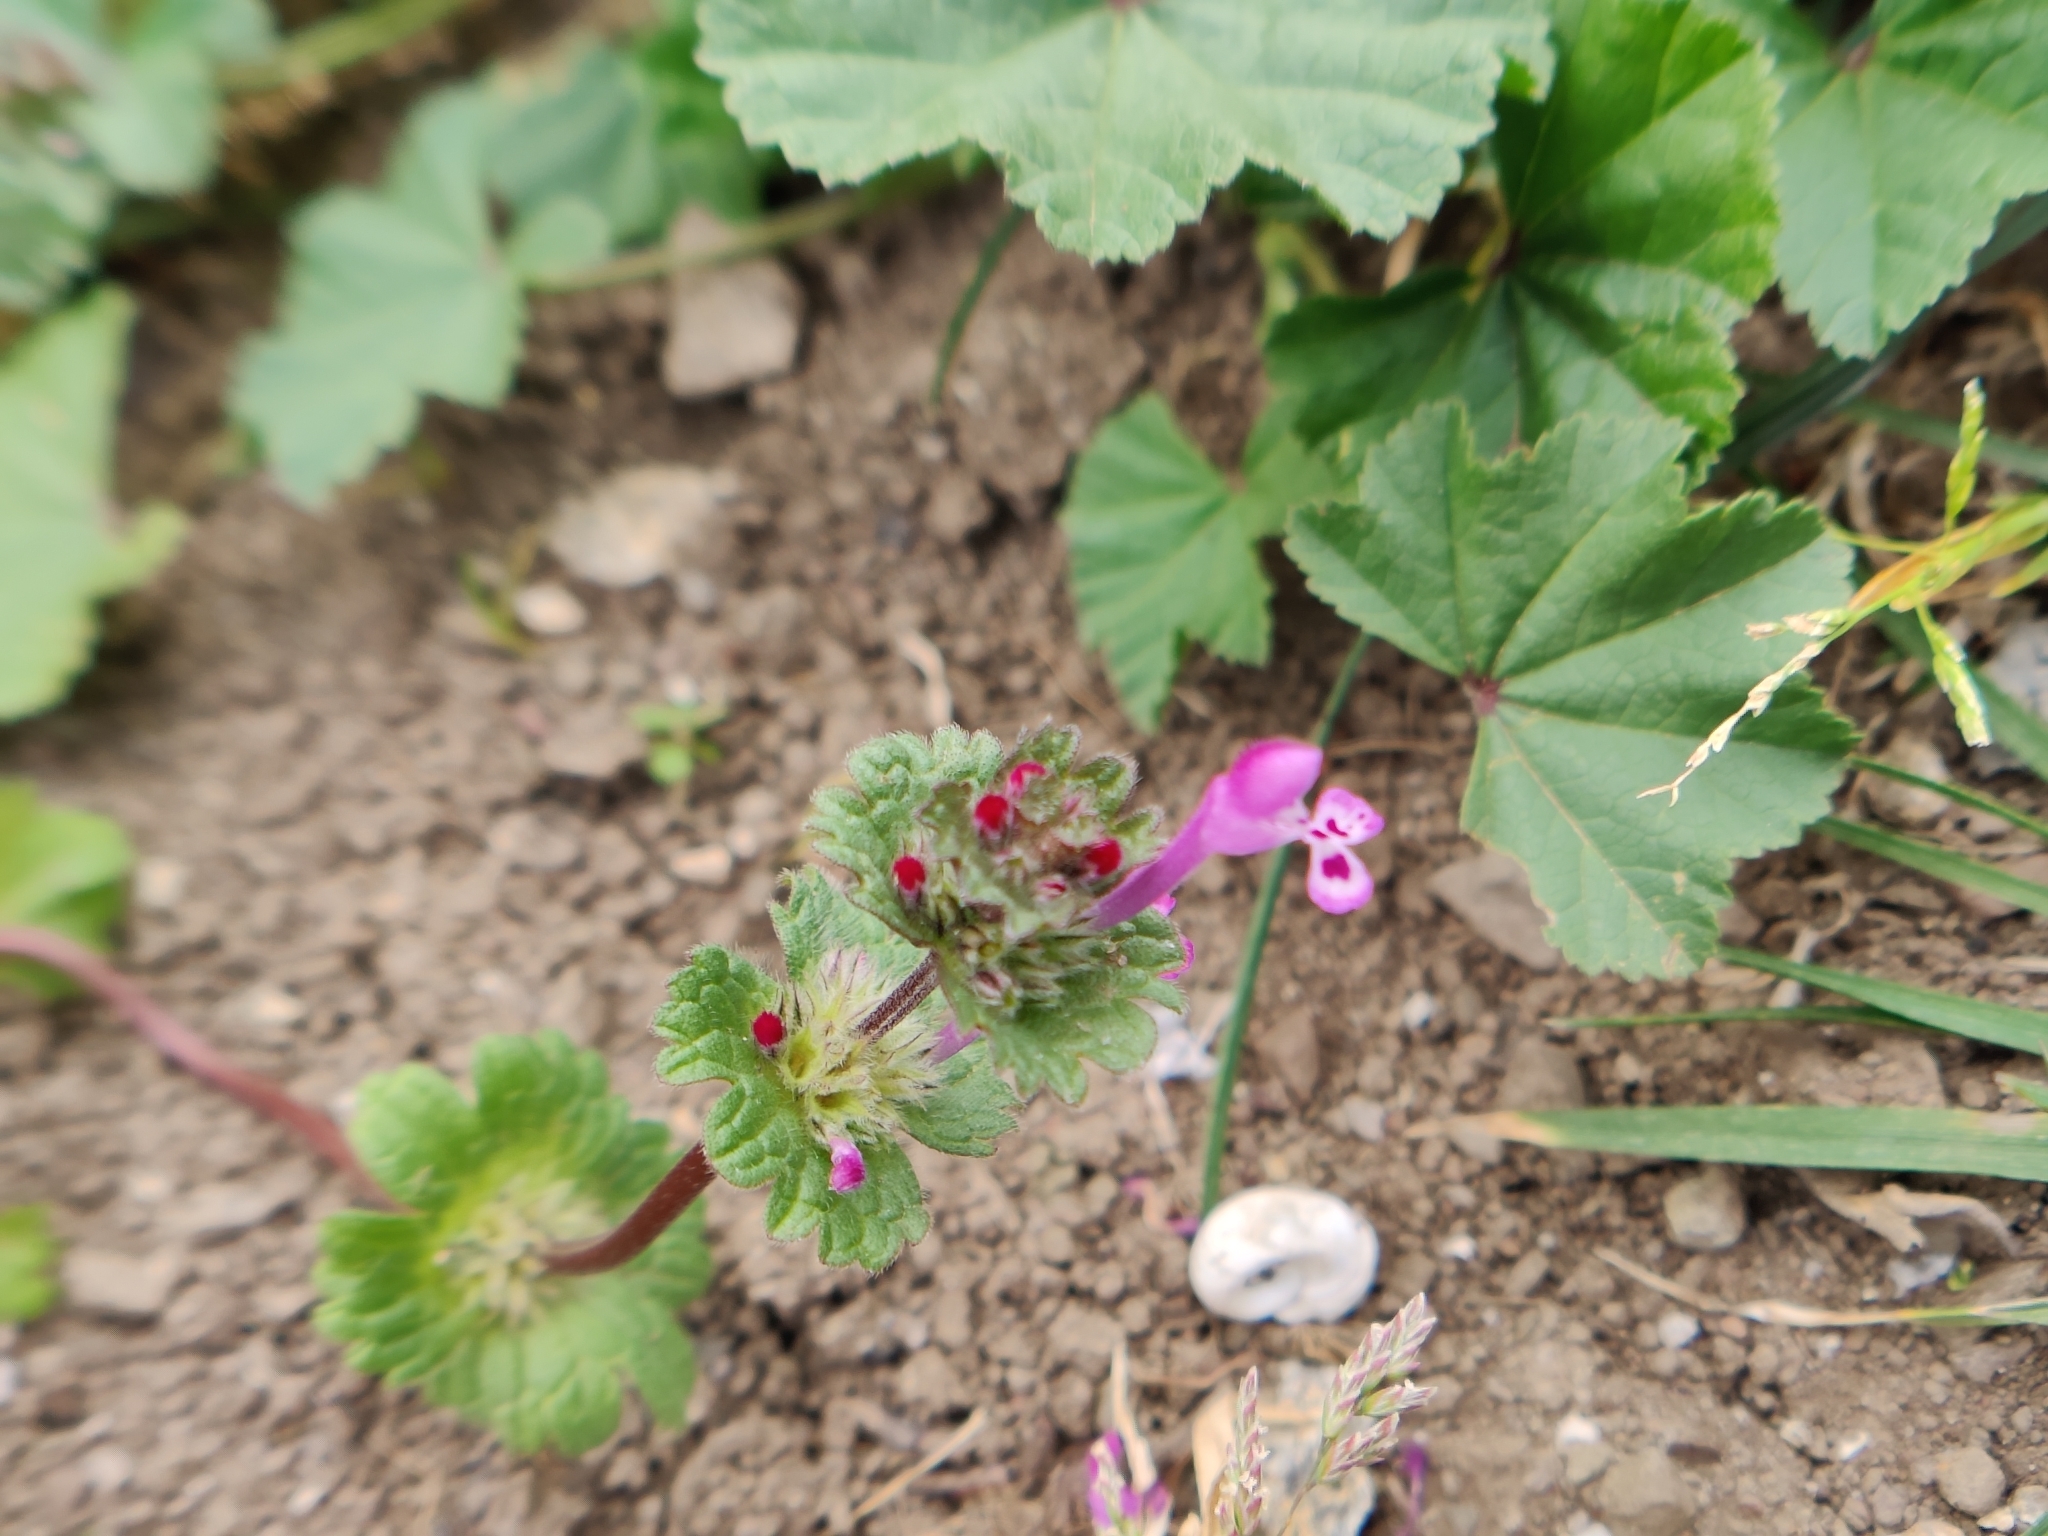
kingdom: Plantae
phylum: Tracheophyta
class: Magnoliopsida
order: Lamiales
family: Lamiaceae
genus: Lamium
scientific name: Lamium amplexicaule
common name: Henbit dead-nettle
